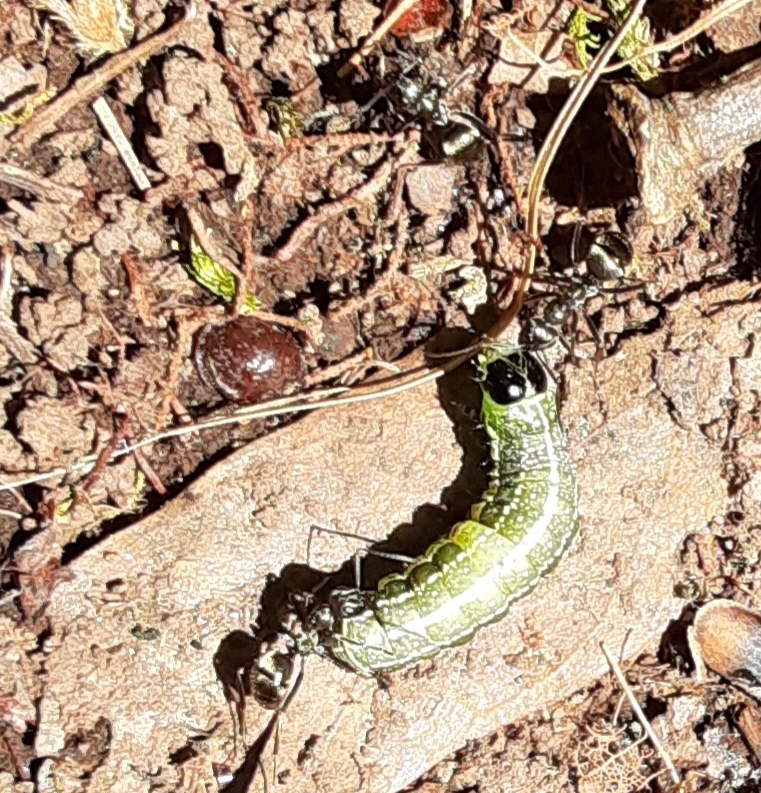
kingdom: Animalia
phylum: Arthropoda
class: Insecta
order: Hymenoptera
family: Formicidae
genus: Formica
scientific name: Formica
